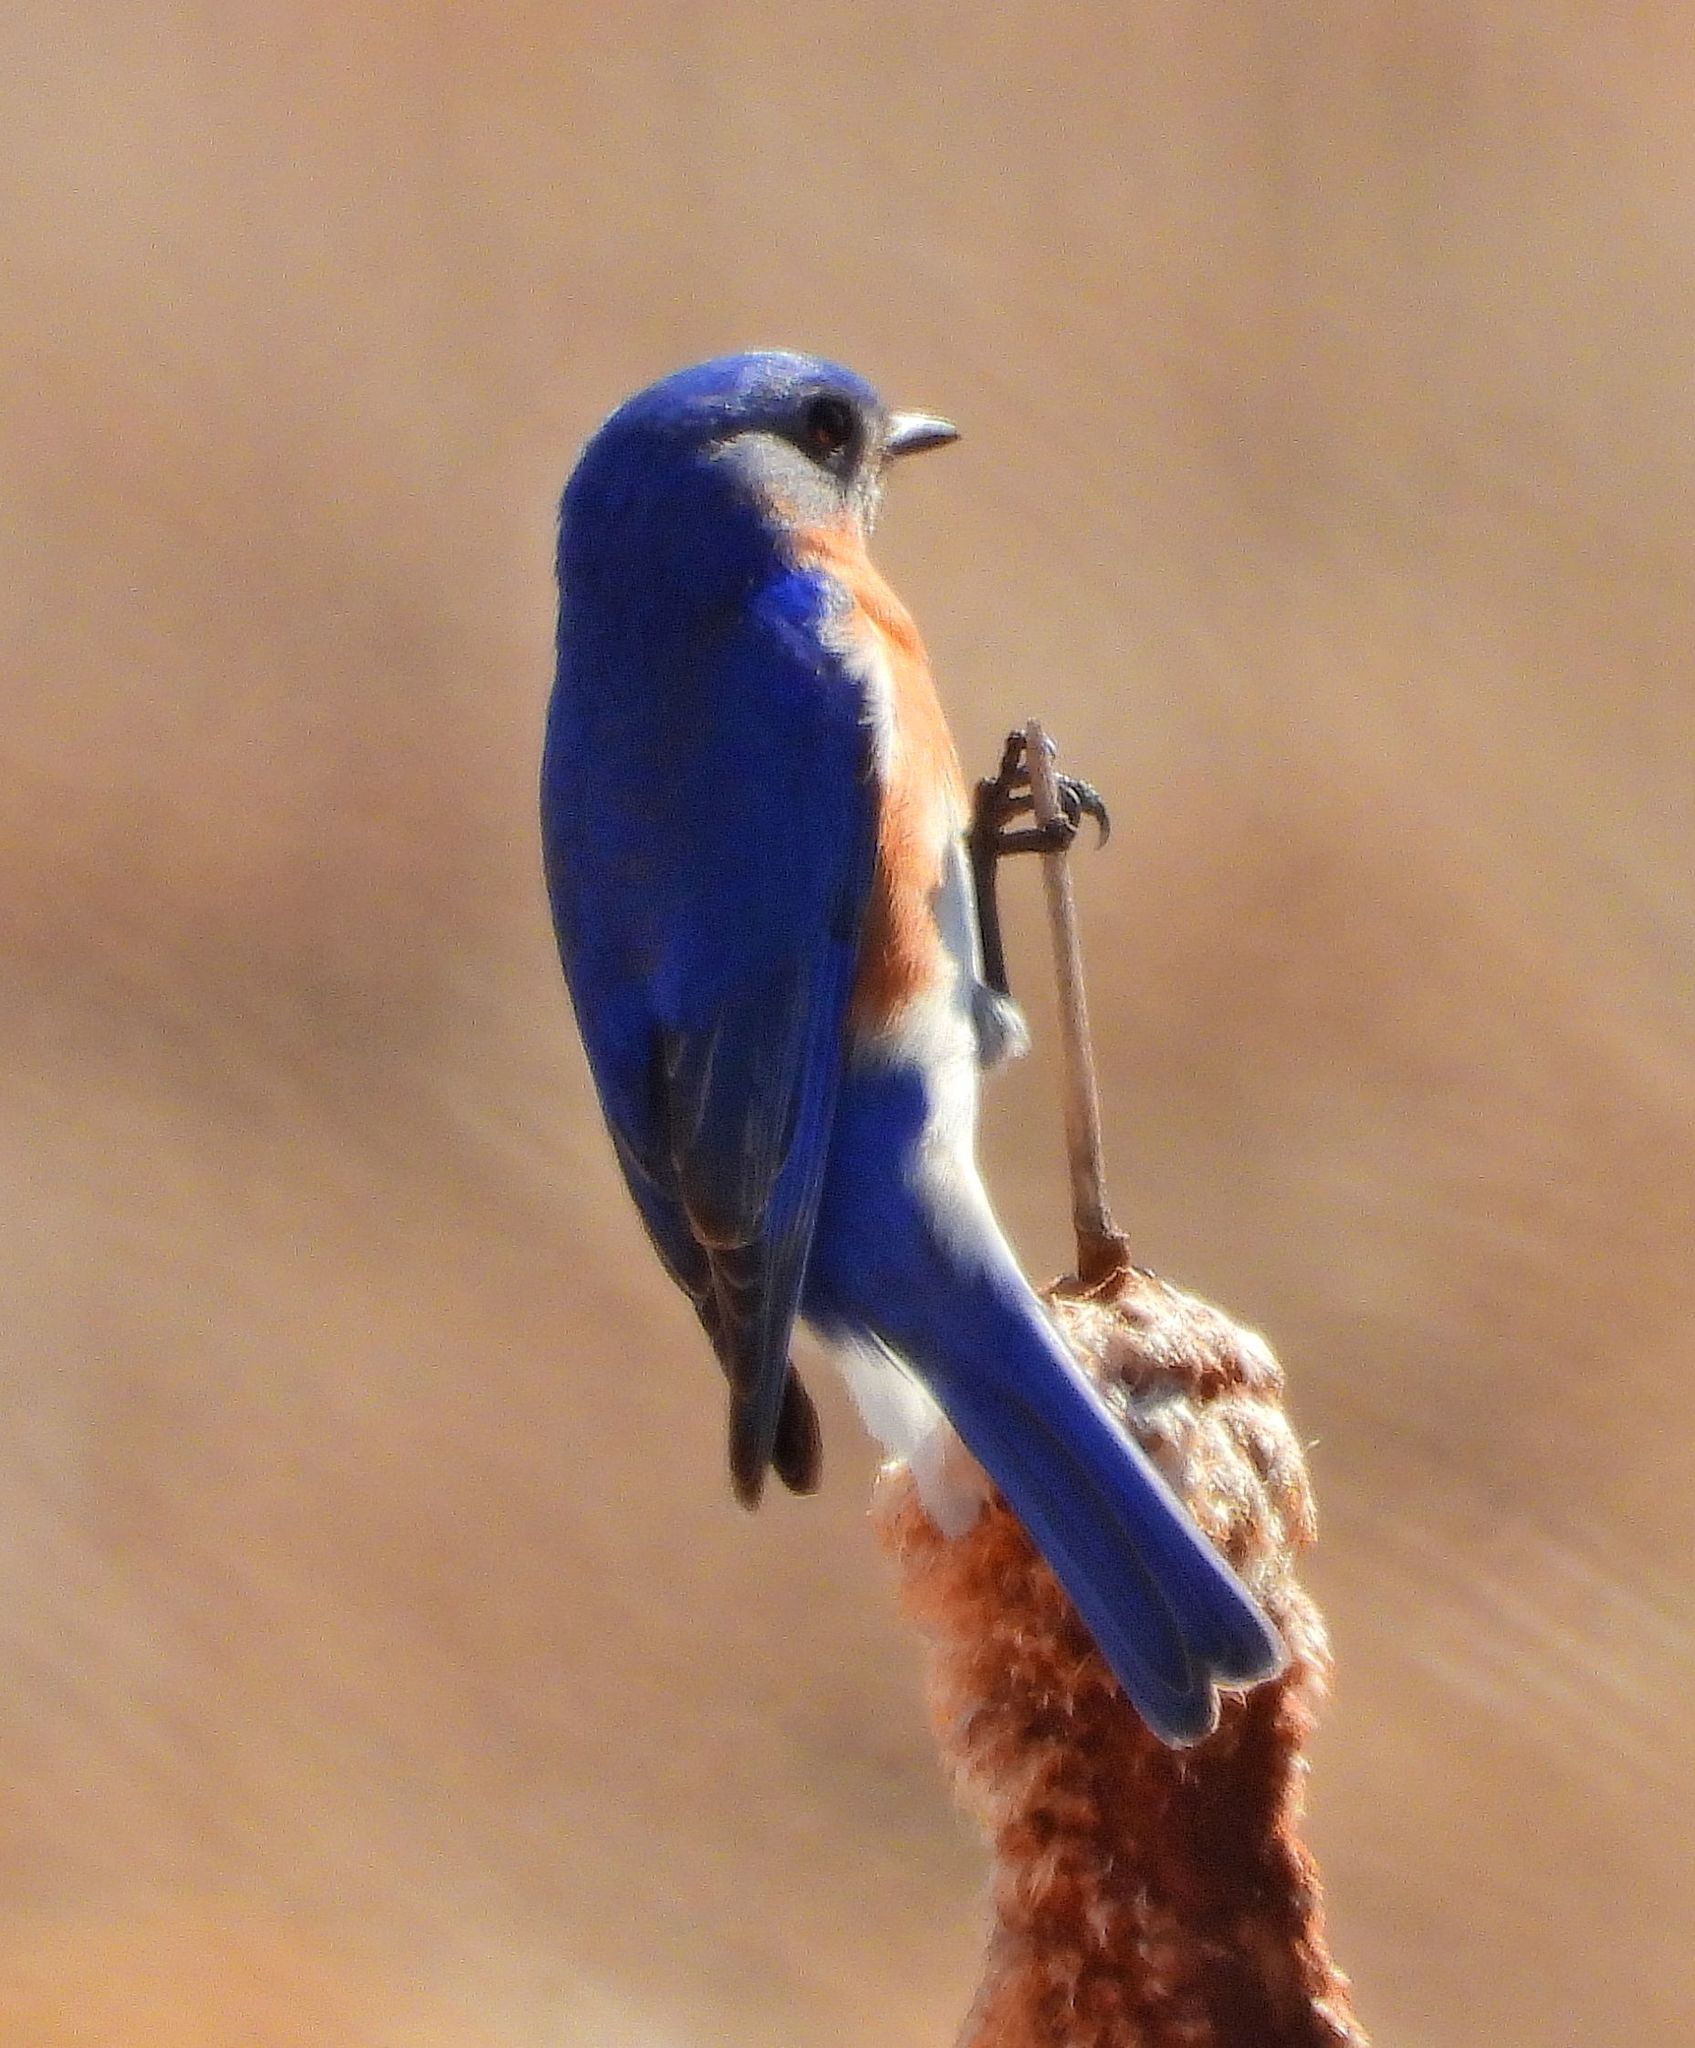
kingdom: Animalia
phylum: Chordata
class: Aves
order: Passeriformes
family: Turdidae
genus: Sialia
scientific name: Sialia sialis
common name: Eastern bluebird
